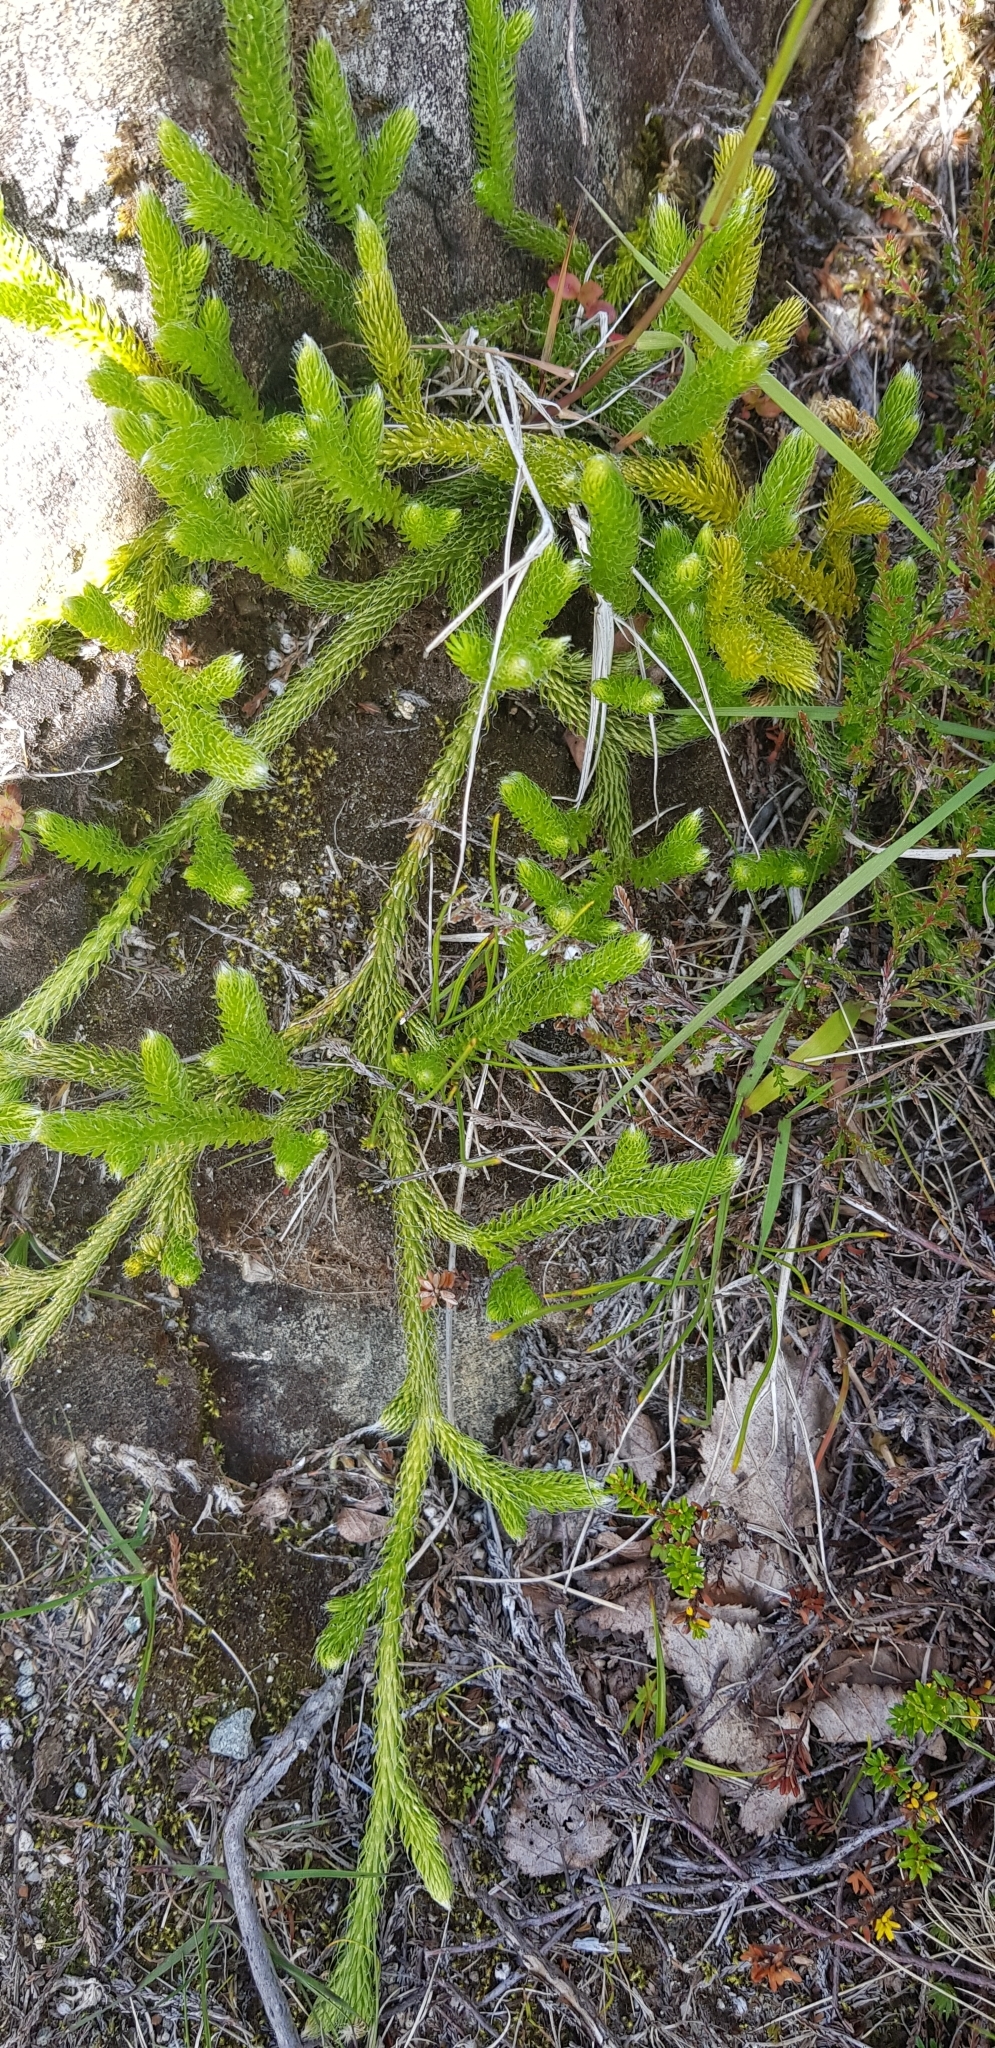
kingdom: Plantae
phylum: Tracheophyta
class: Lycopodiopsida
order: Lycopodiales
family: Lycopodiaceae
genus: Lycopodium
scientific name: Lycopodium clavatum
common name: Stag's-horn clubmoss
